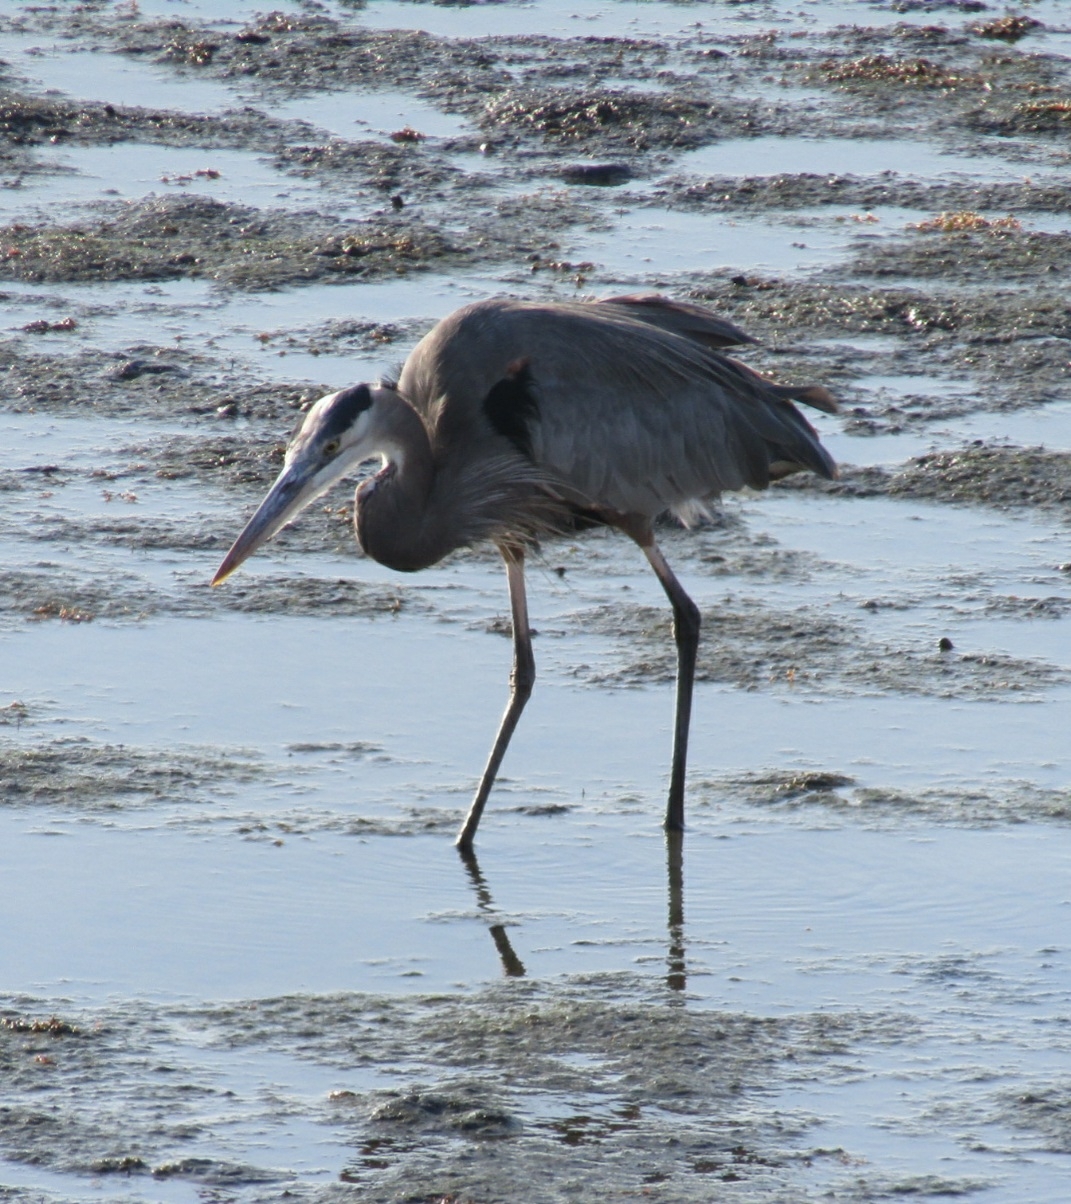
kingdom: Animalia
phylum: Chordata
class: Aves
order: Pelecaniformes
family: Ardeidae
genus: Ardea
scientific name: Ardea herodias
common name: Great blue heron
